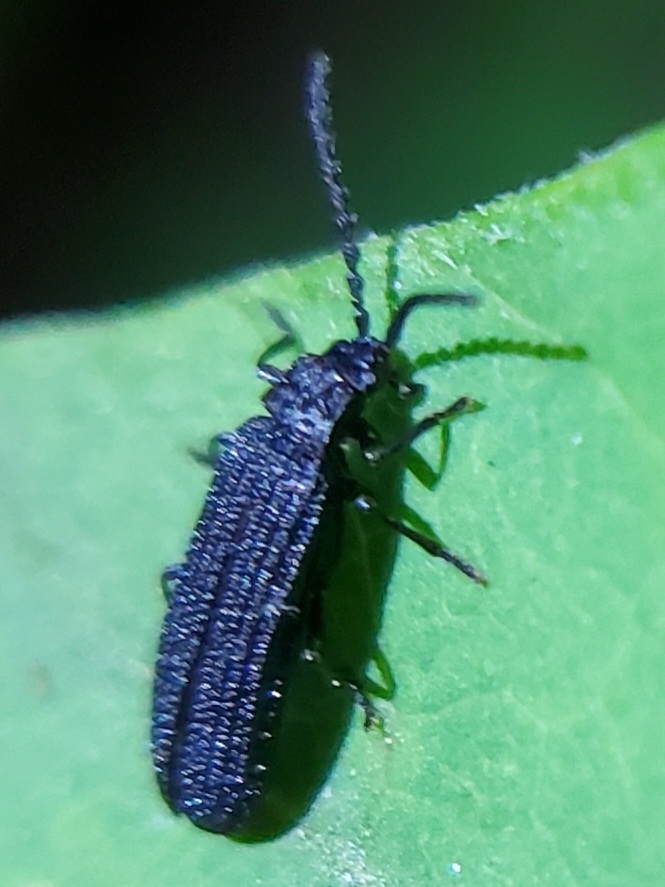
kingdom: Animalia
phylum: Arthropoda
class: Insecta
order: Coleoptera
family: Lycidae
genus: Erotides
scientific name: Erotides sculptilis
